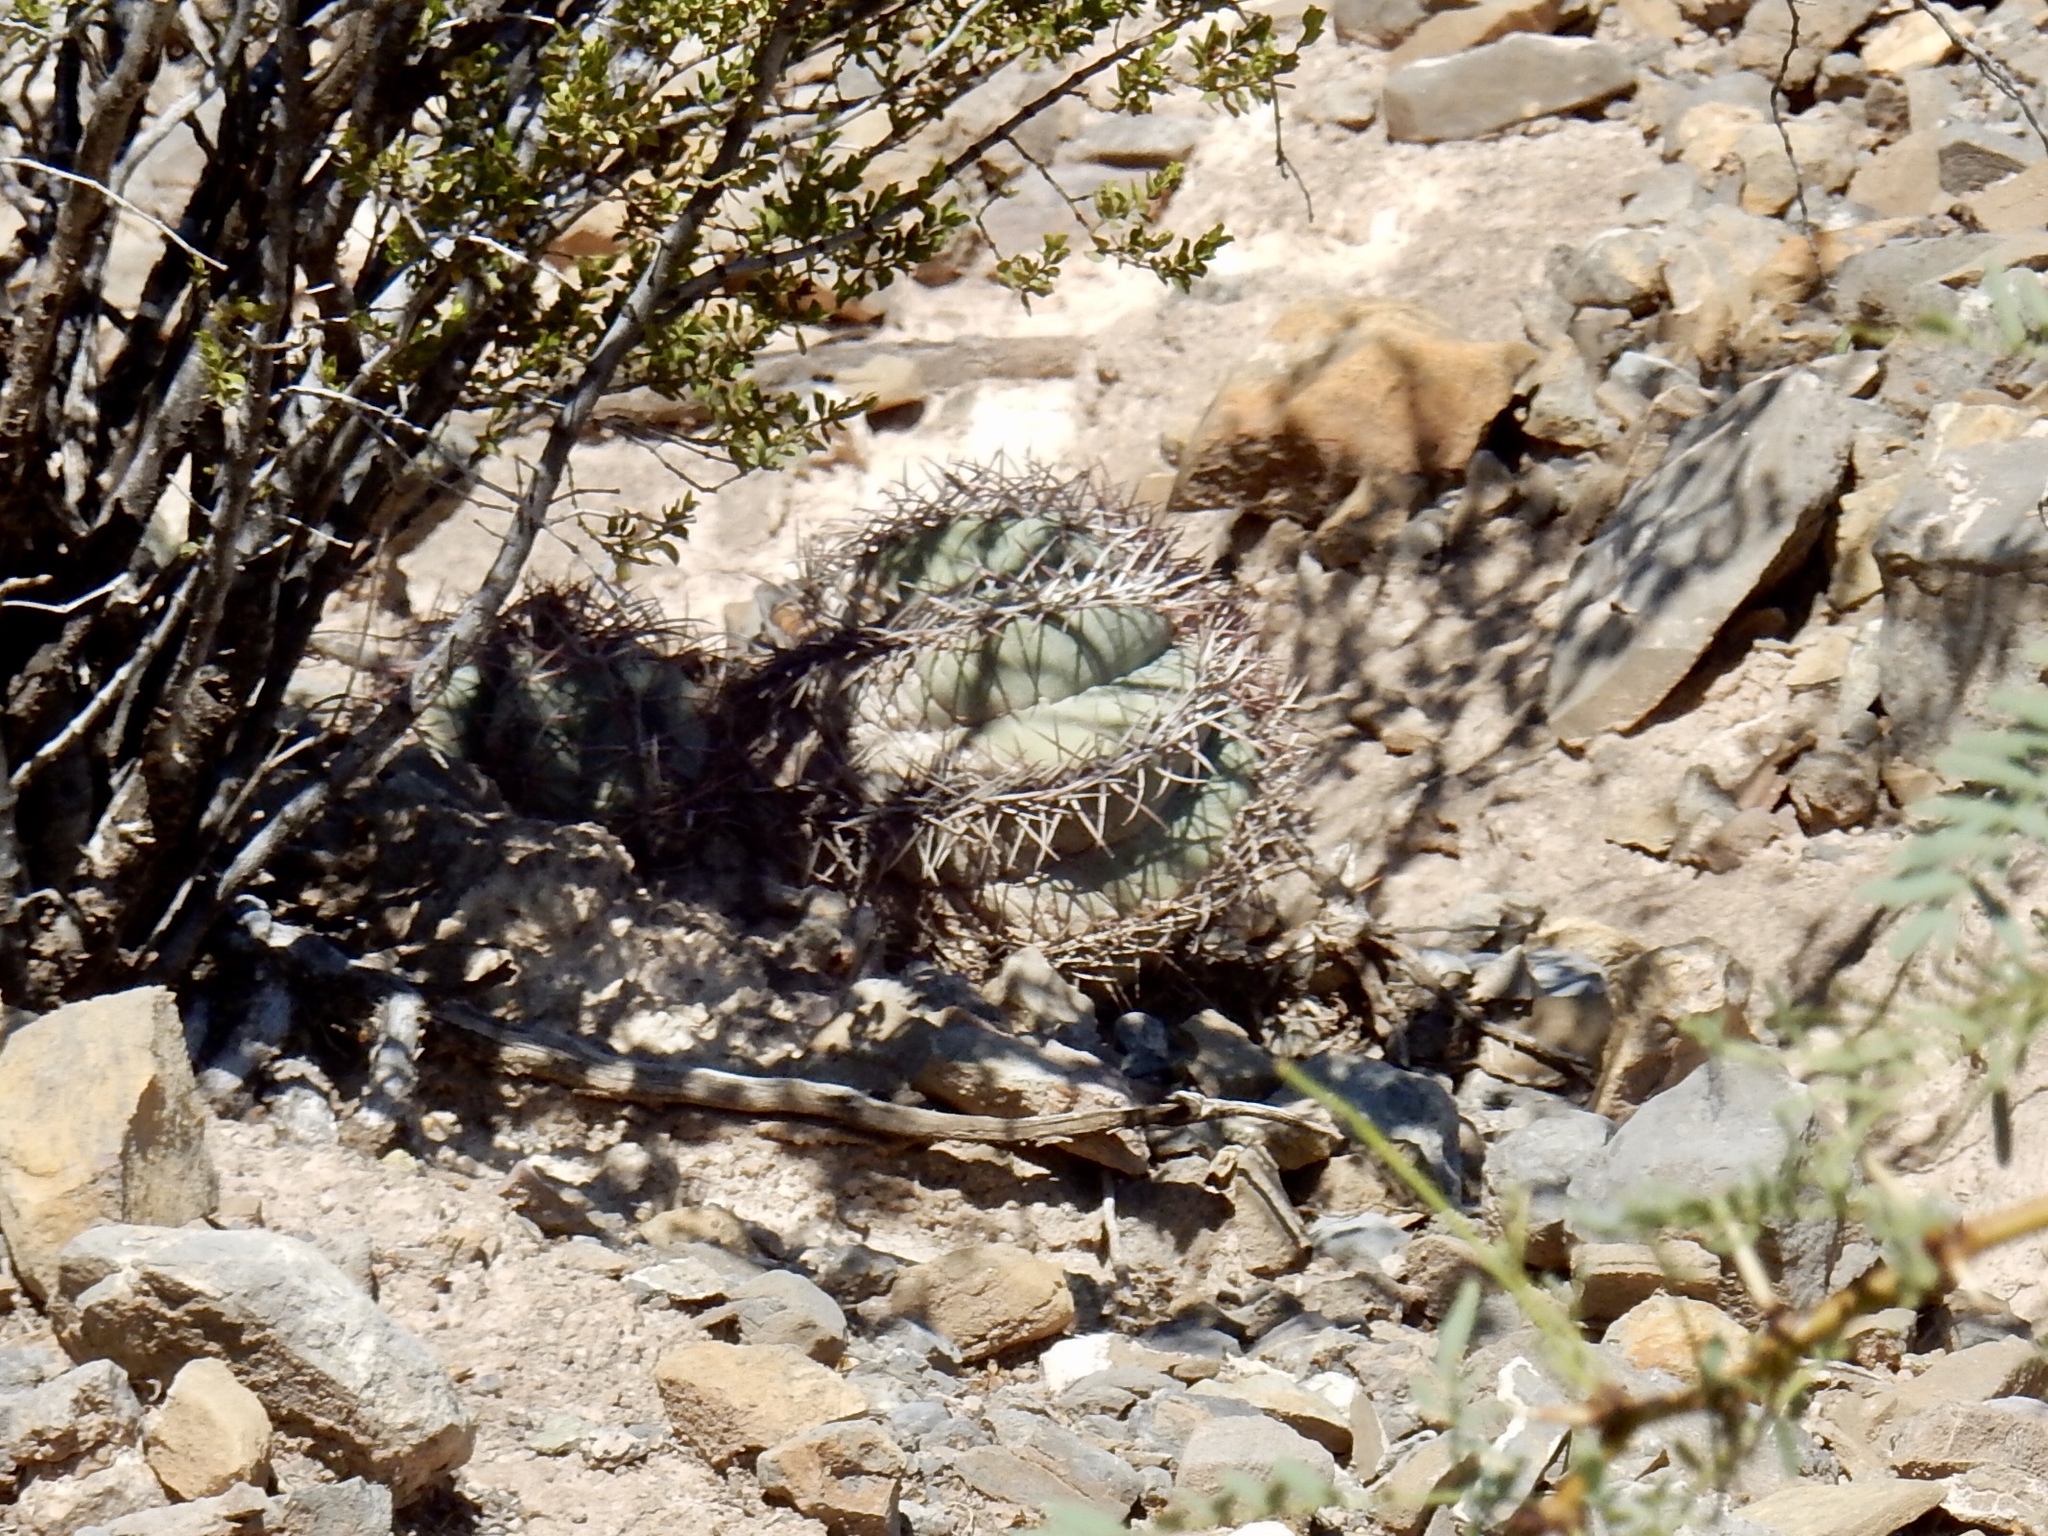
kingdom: Plantae
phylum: Tracheophyta
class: Magnoliopsida
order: Caryophyllales
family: Cactaceae
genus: Echinocactus
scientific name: Echinocactus horizonthalonius
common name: Devilshead
